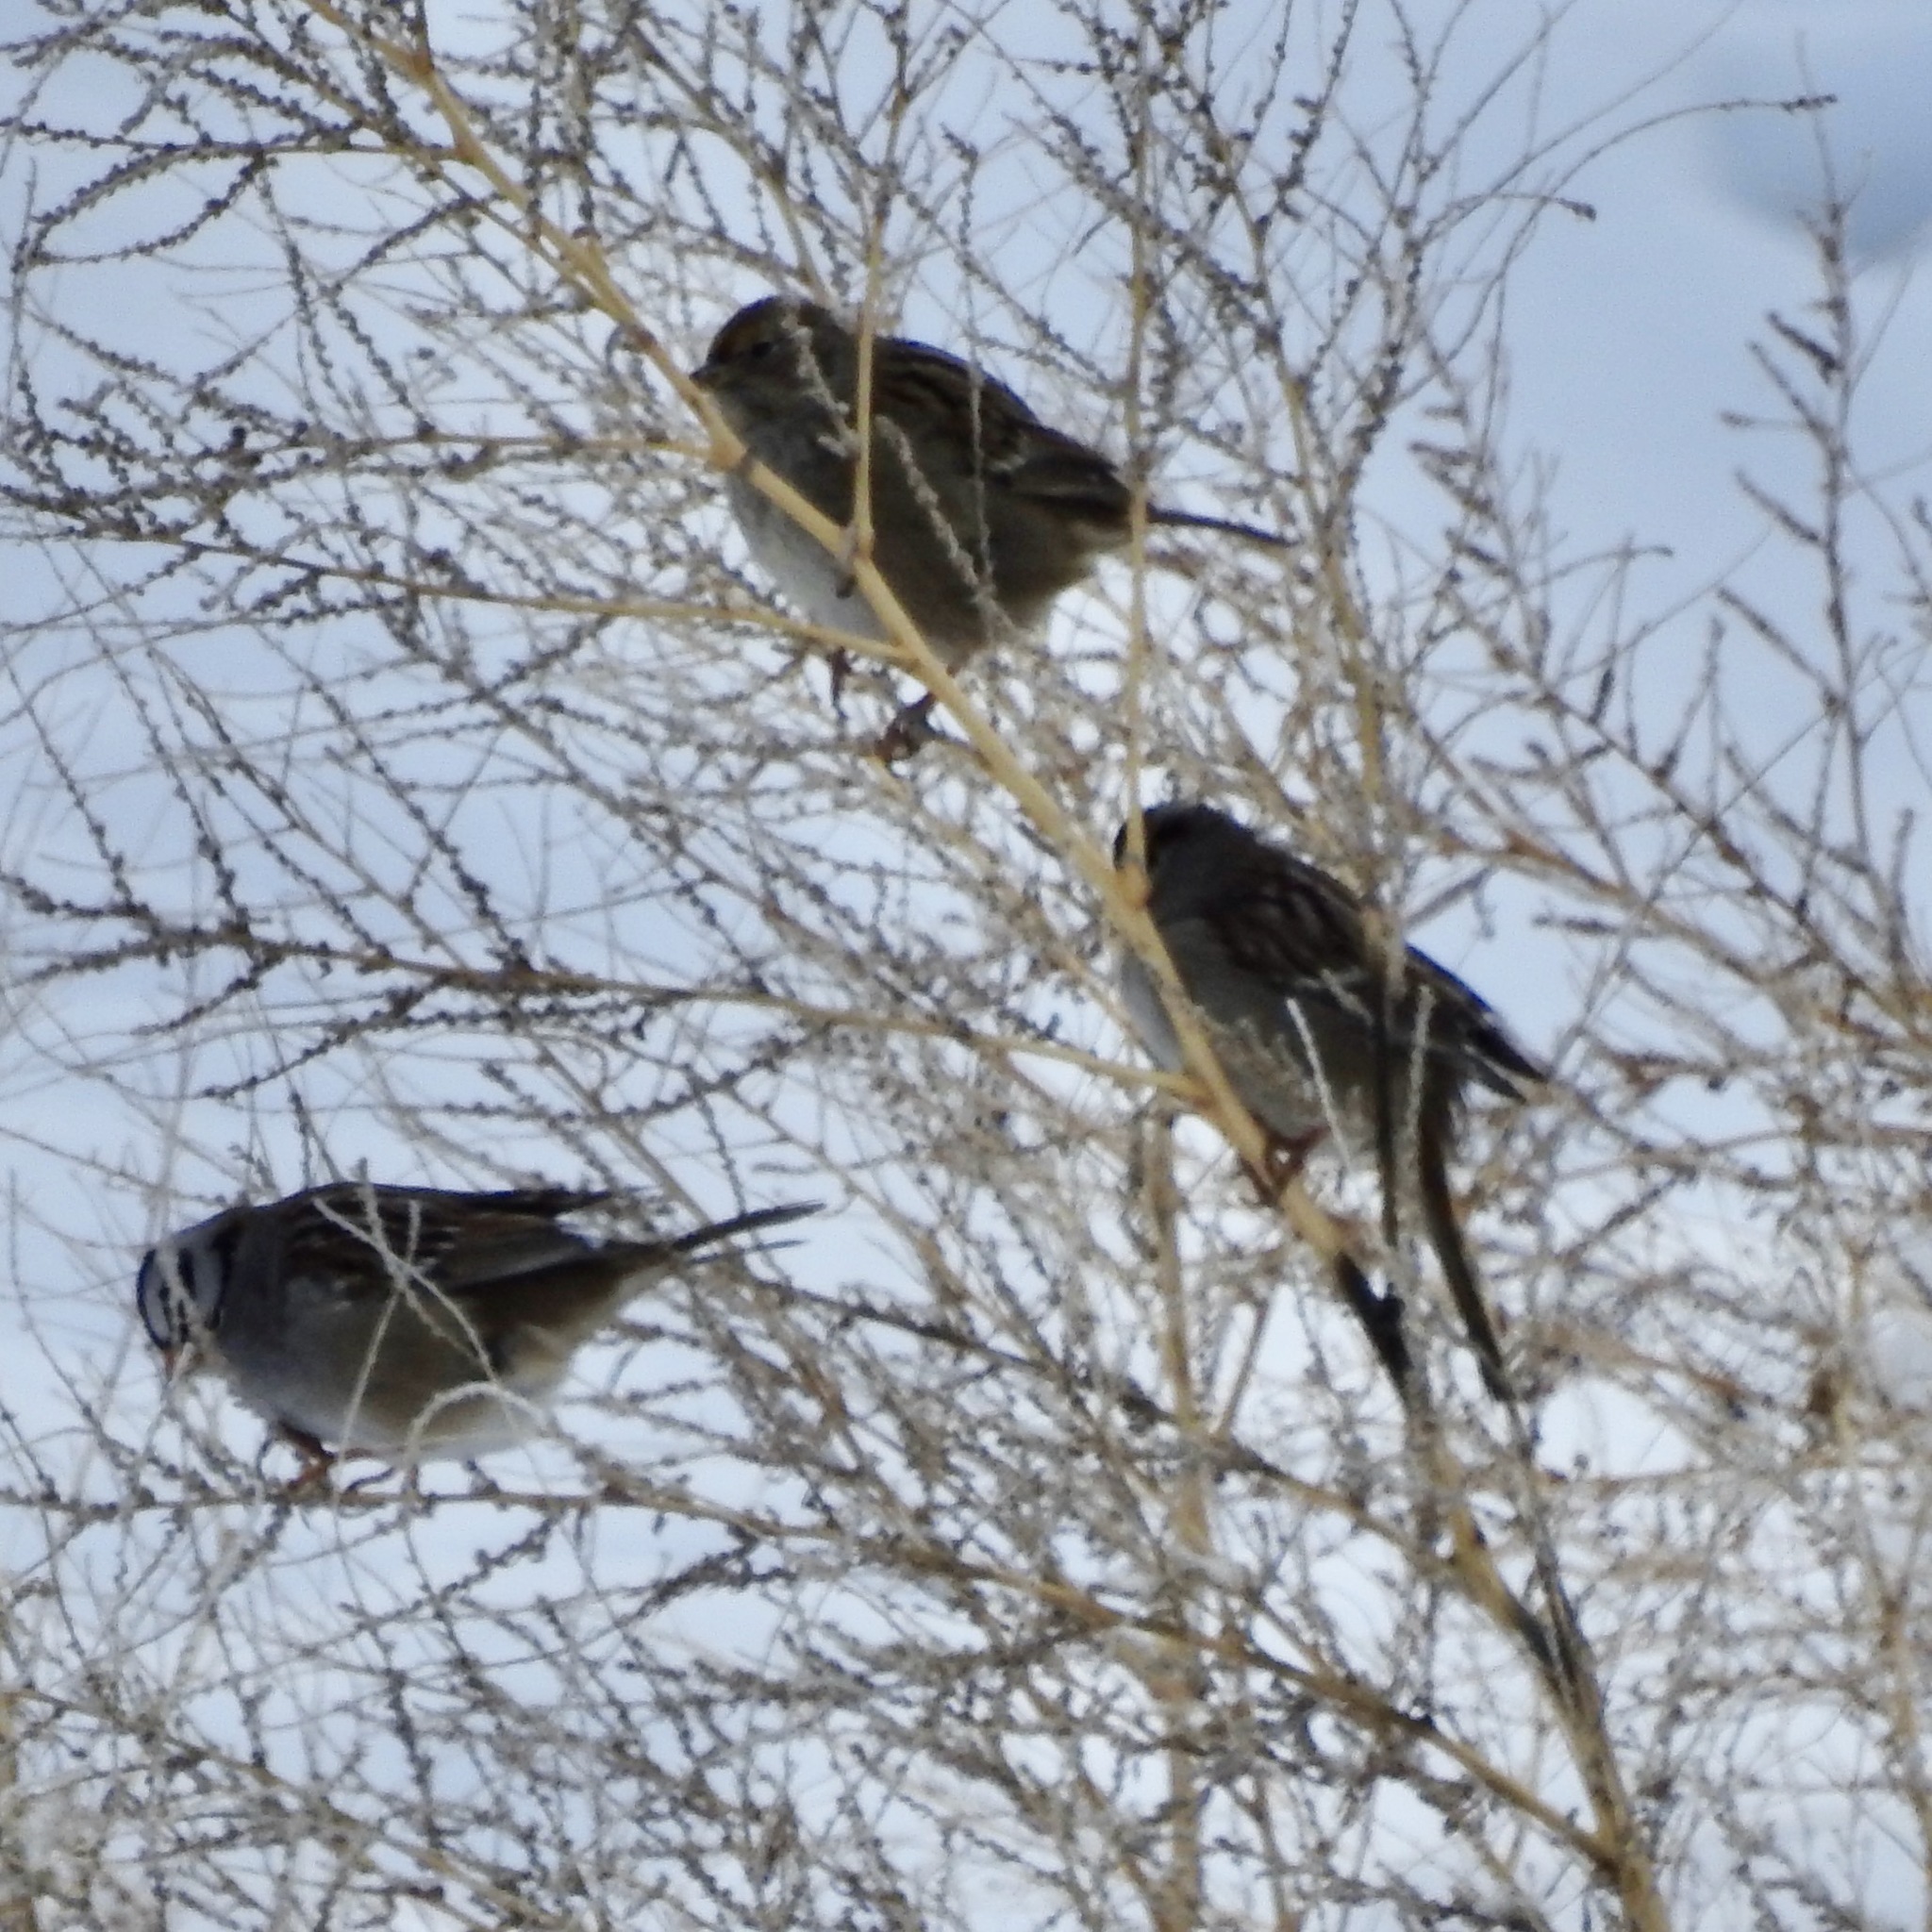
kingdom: Animalia
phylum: Chordata
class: Aves
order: Passeriformes
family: Passerellidae
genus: Zonotrichia
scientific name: Zonotrichia leucophrys
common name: White-crowned sparrow
